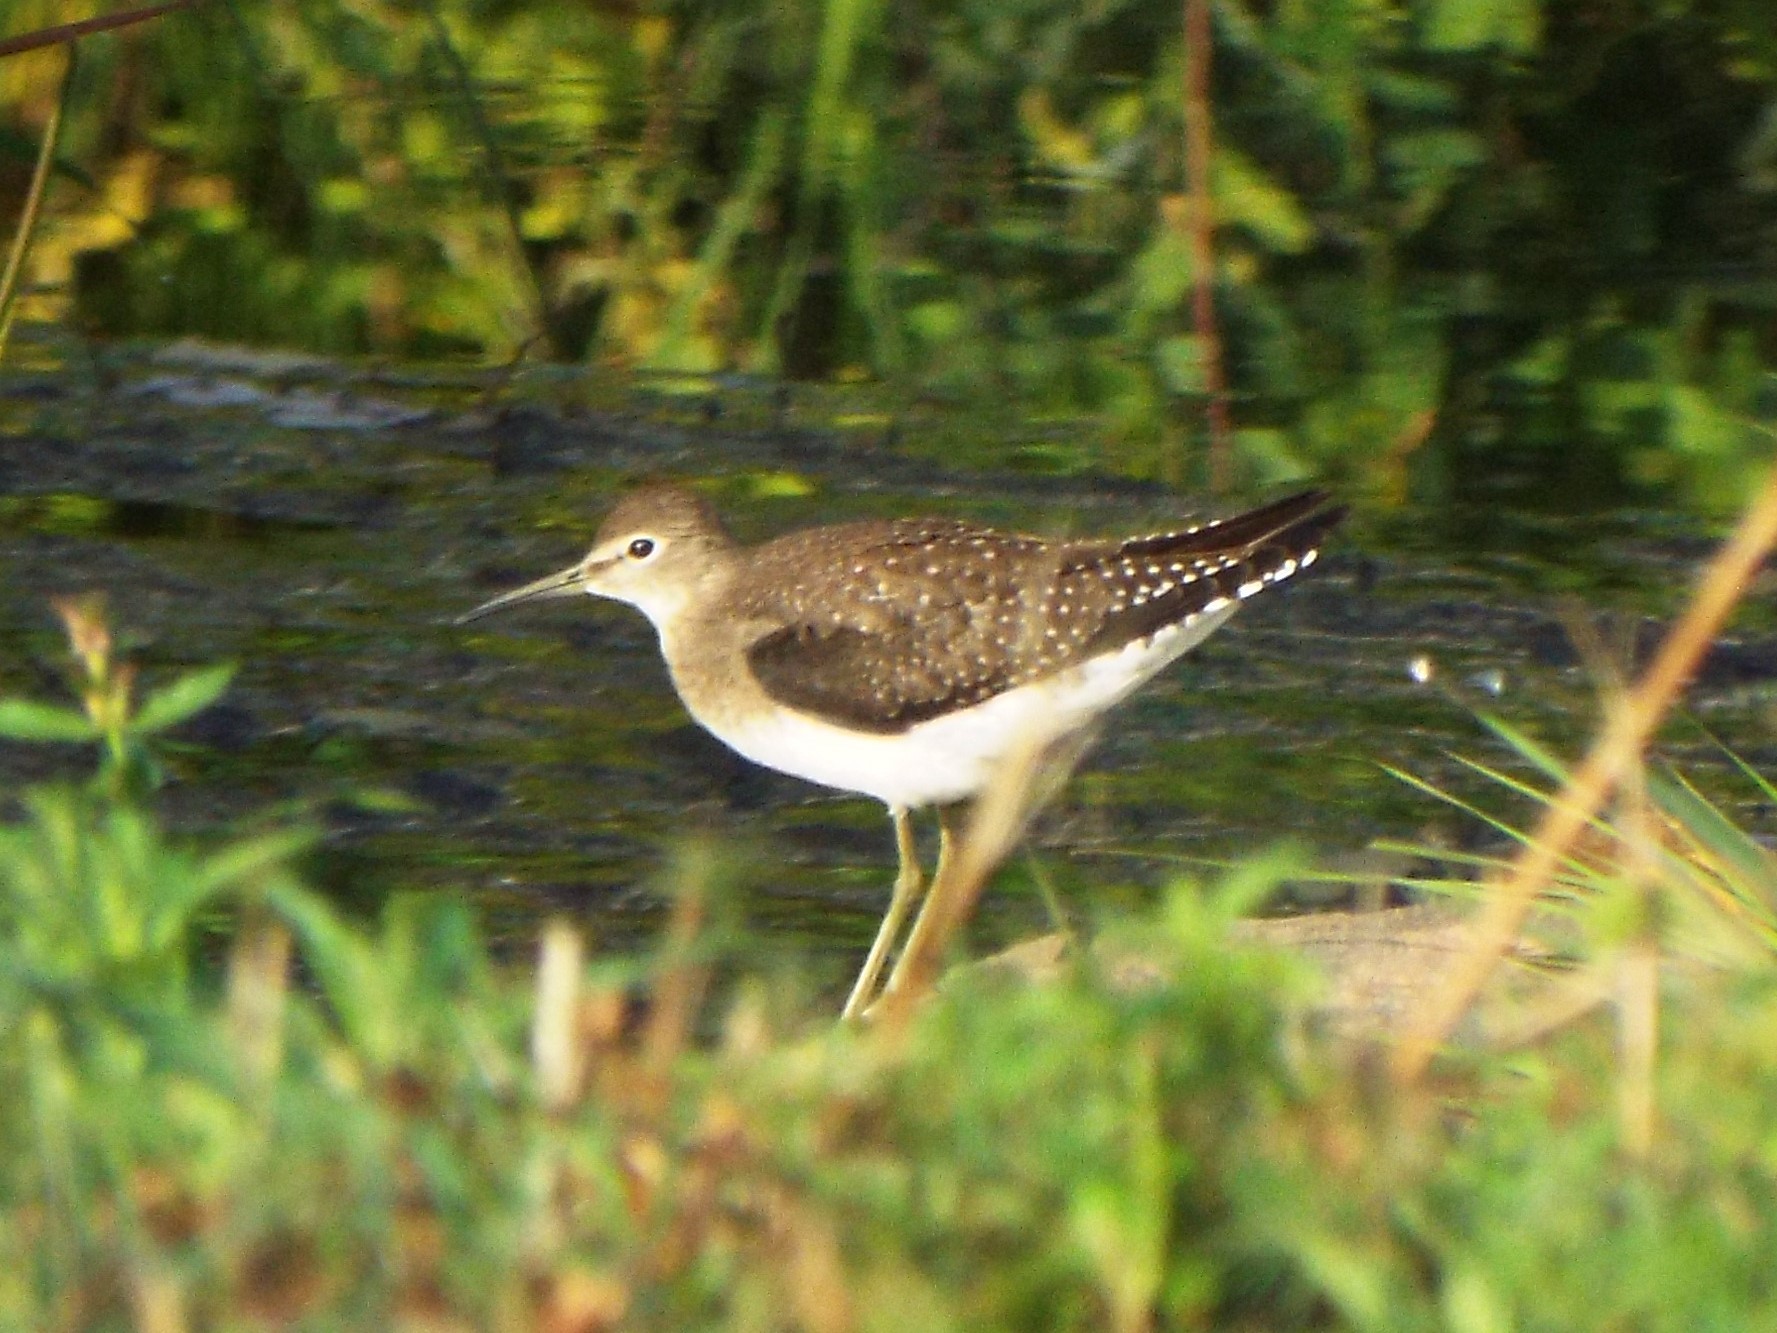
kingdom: Animalia
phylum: Chordata
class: Aves
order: Charadriiformes
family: Scolopacidae
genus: Tringa
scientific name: Tringa solitaria
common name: Solitary sandpiper
